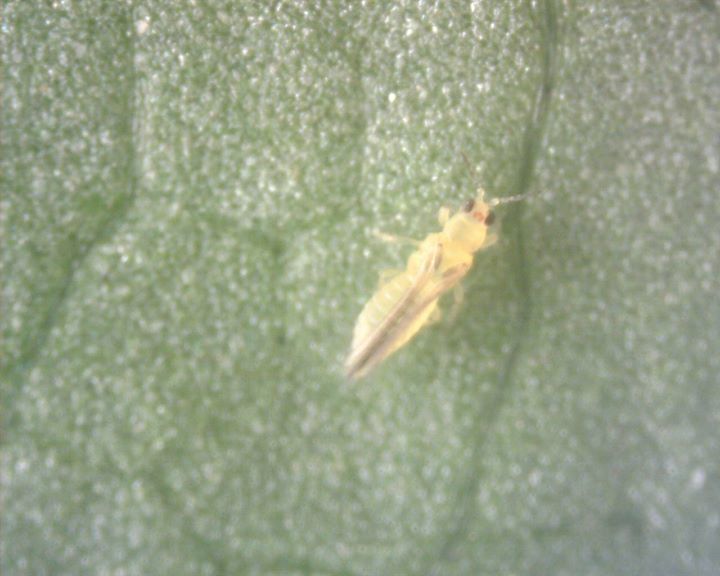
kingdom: Animalia
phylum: Arthropoda
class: Insecta
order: Thysanoptera
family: Thripidae
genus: Scirtothrips
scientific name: Scirtothrips dorsalis
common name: Thrips
